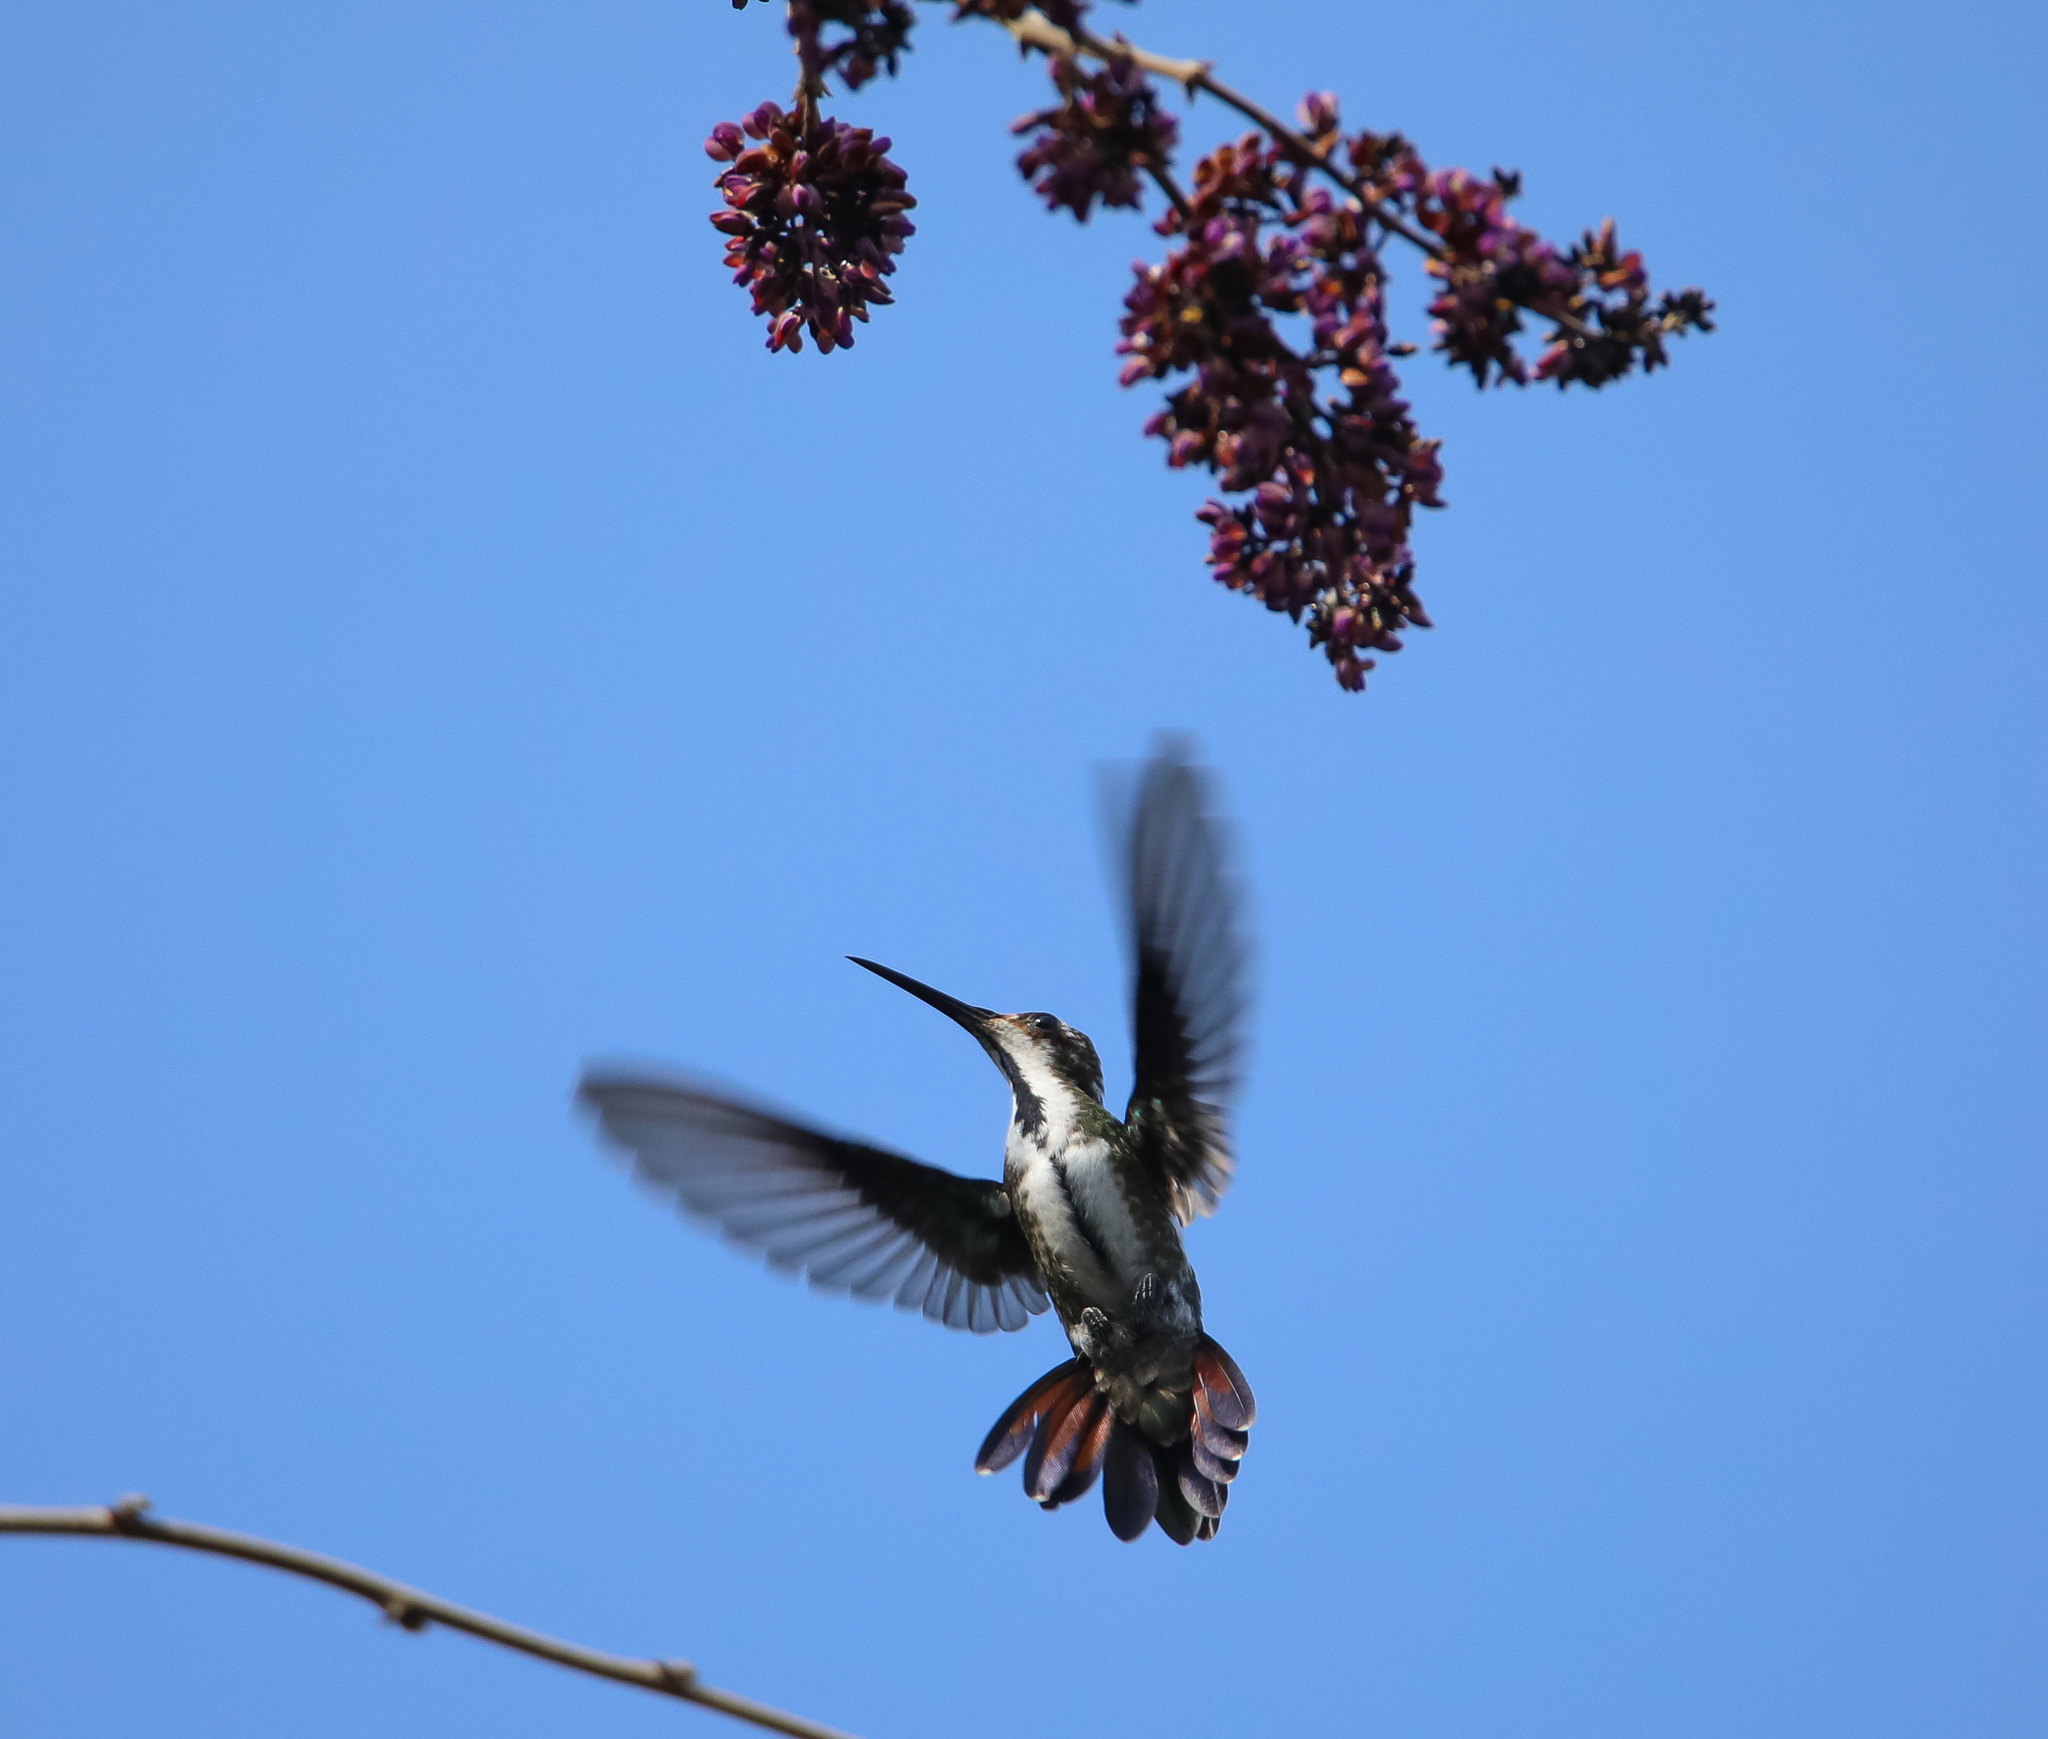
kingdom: Animalia
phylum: Chordata
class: Aves
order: Apodiformes
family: Trochilidae
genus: Anthracothorax
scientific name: Anthracothorax nigricollis
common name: Black-throated mango
